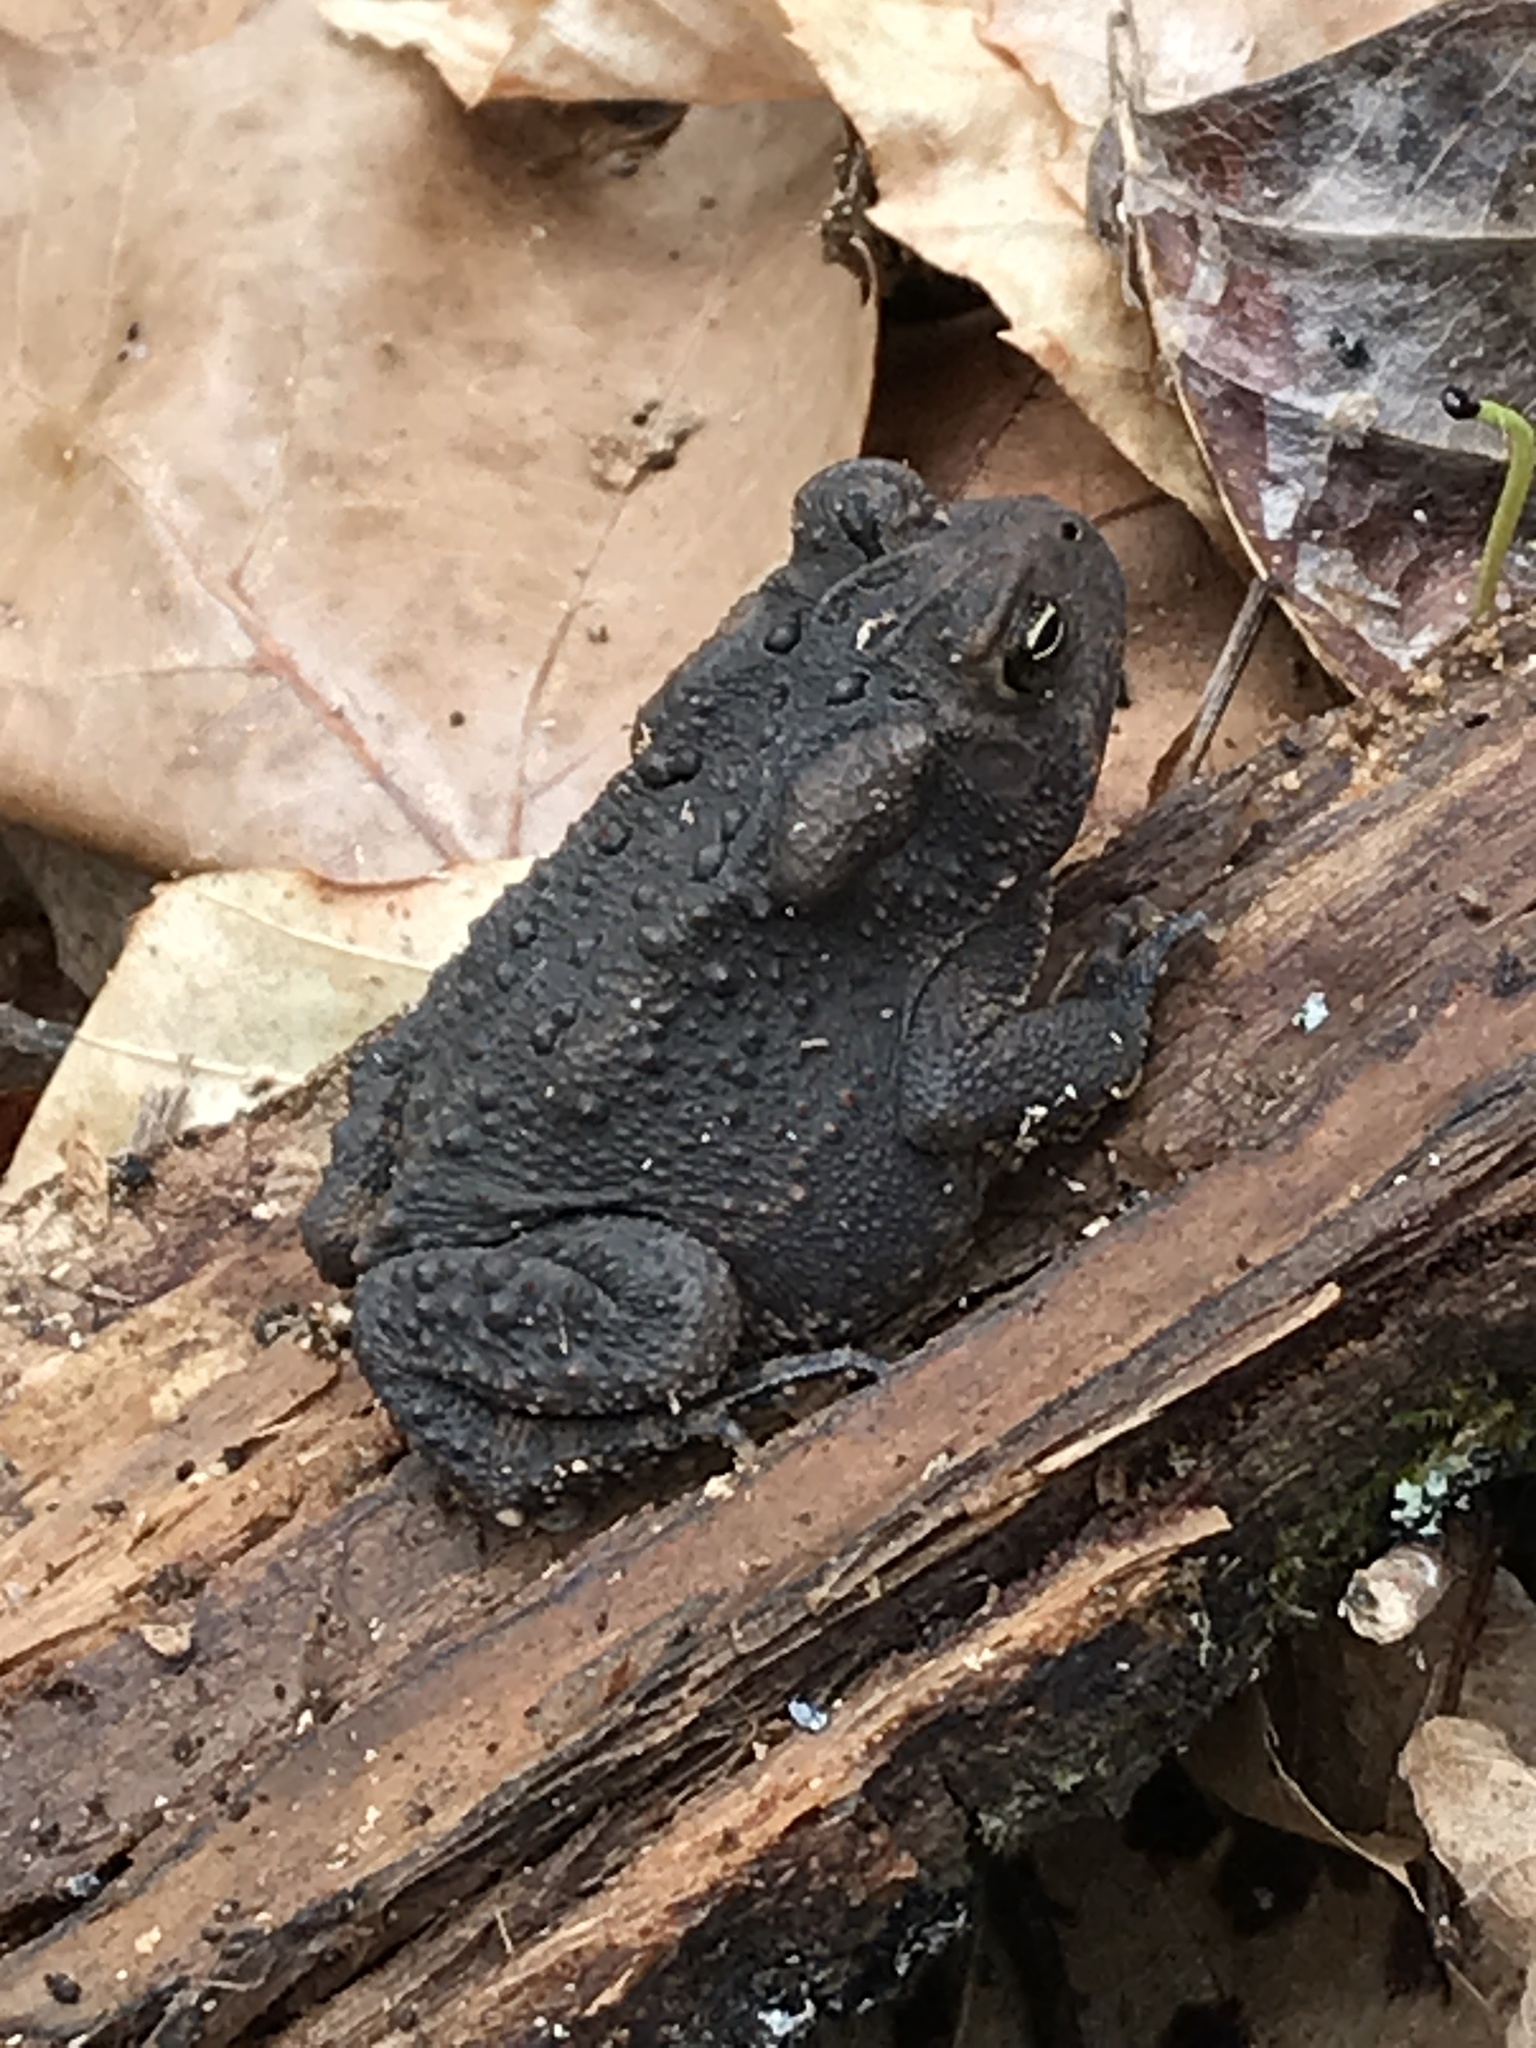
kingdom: Animalia
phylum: Chordata
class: Amphibia
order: Anura
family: Bufonidae
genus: Anaxyrus
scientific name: Anaxyrus americanus
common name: American toad
